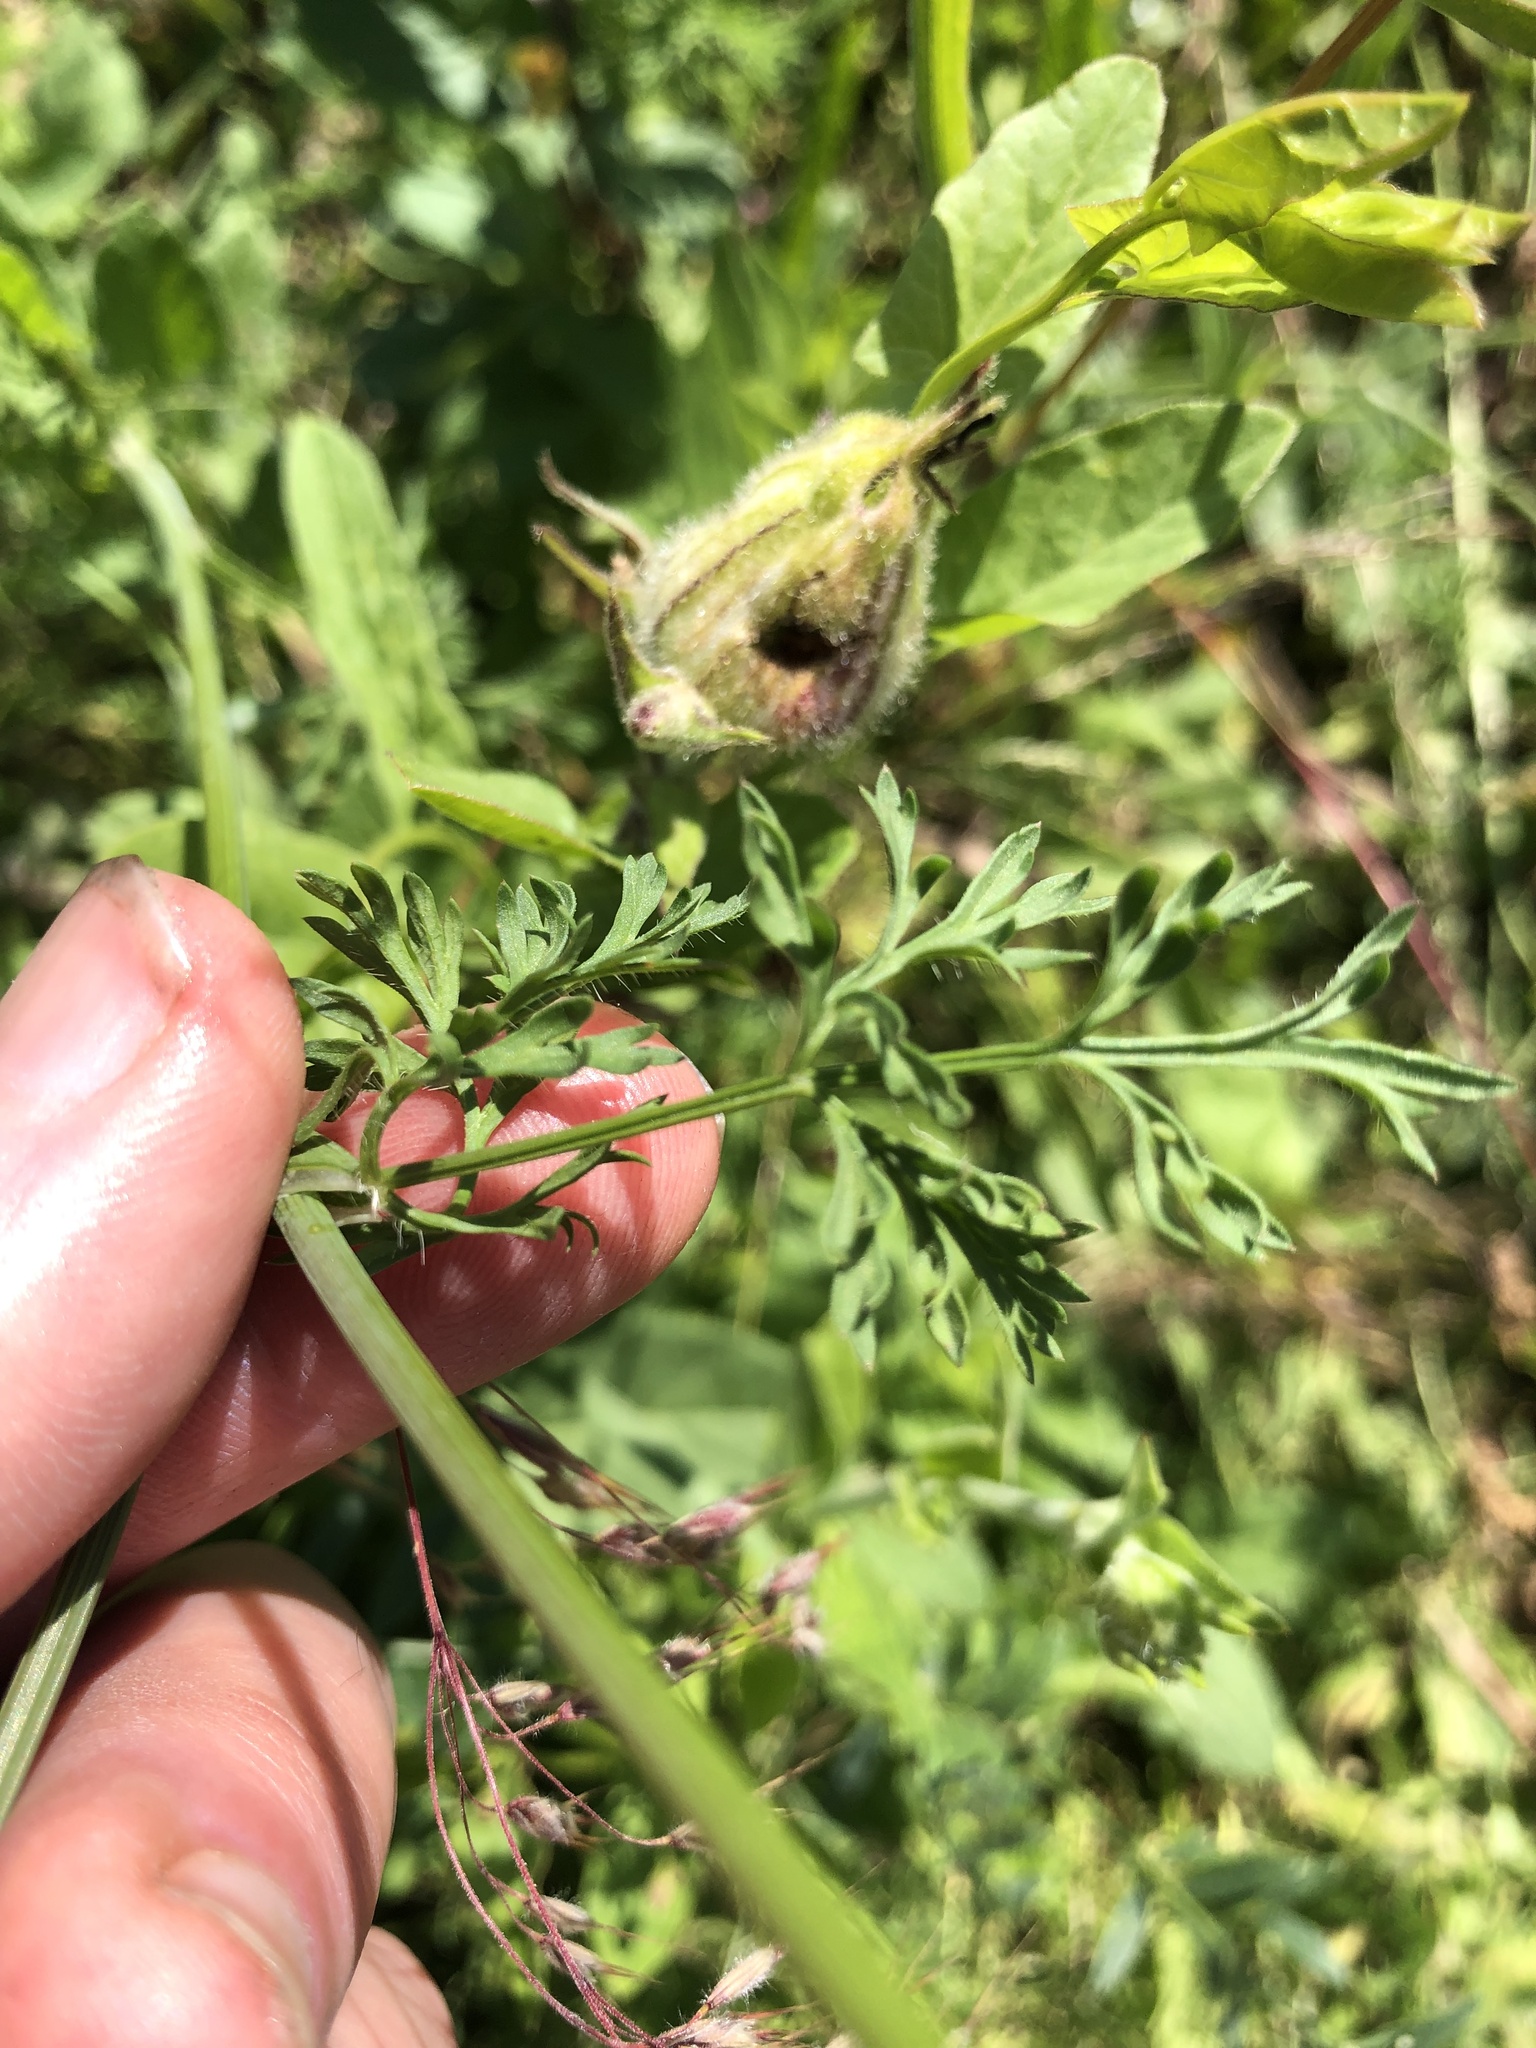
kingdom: Plantae
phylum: Tracheophyta
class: Magnoliopsida
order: Apiales
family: Apiaceae
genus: Orlaya
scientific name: Orlaya grandiflora
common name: White lace flower
